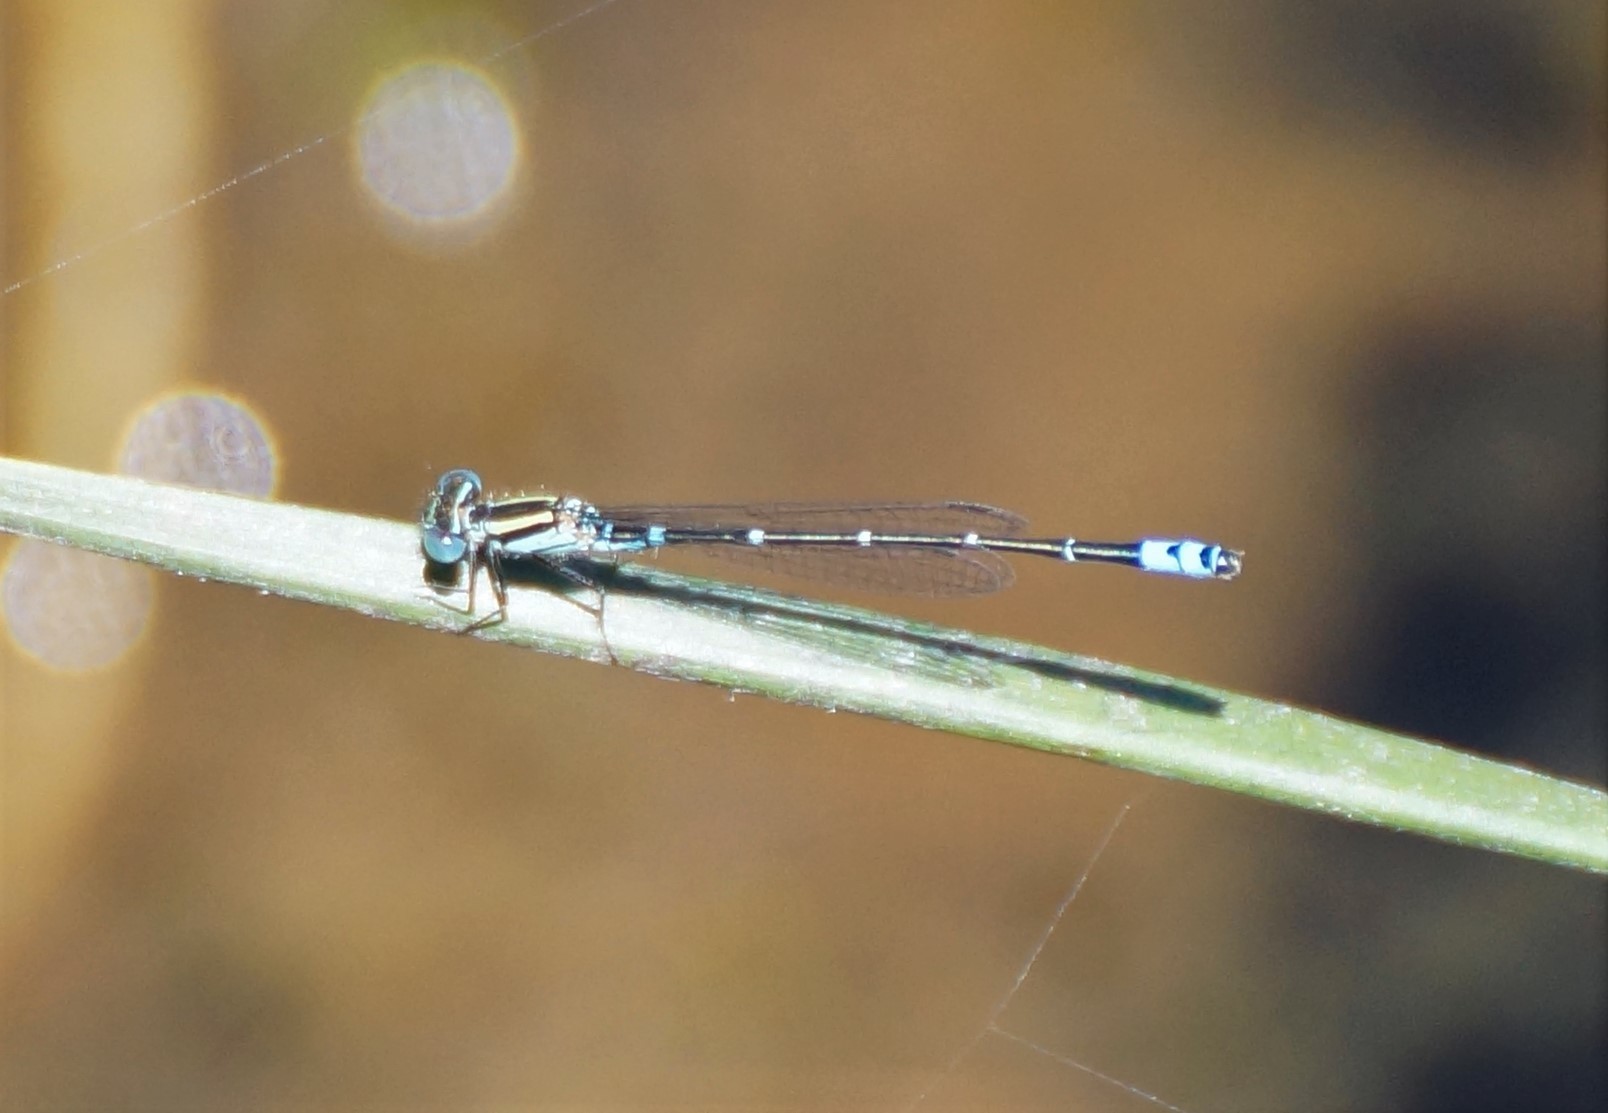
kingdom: Animalia
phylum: Arthropoda
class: Insecta
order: Odonata
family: Coenagrionidae
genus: Austroagrion
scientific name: Austroagrion watsoni
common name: Eastern billabongfly
